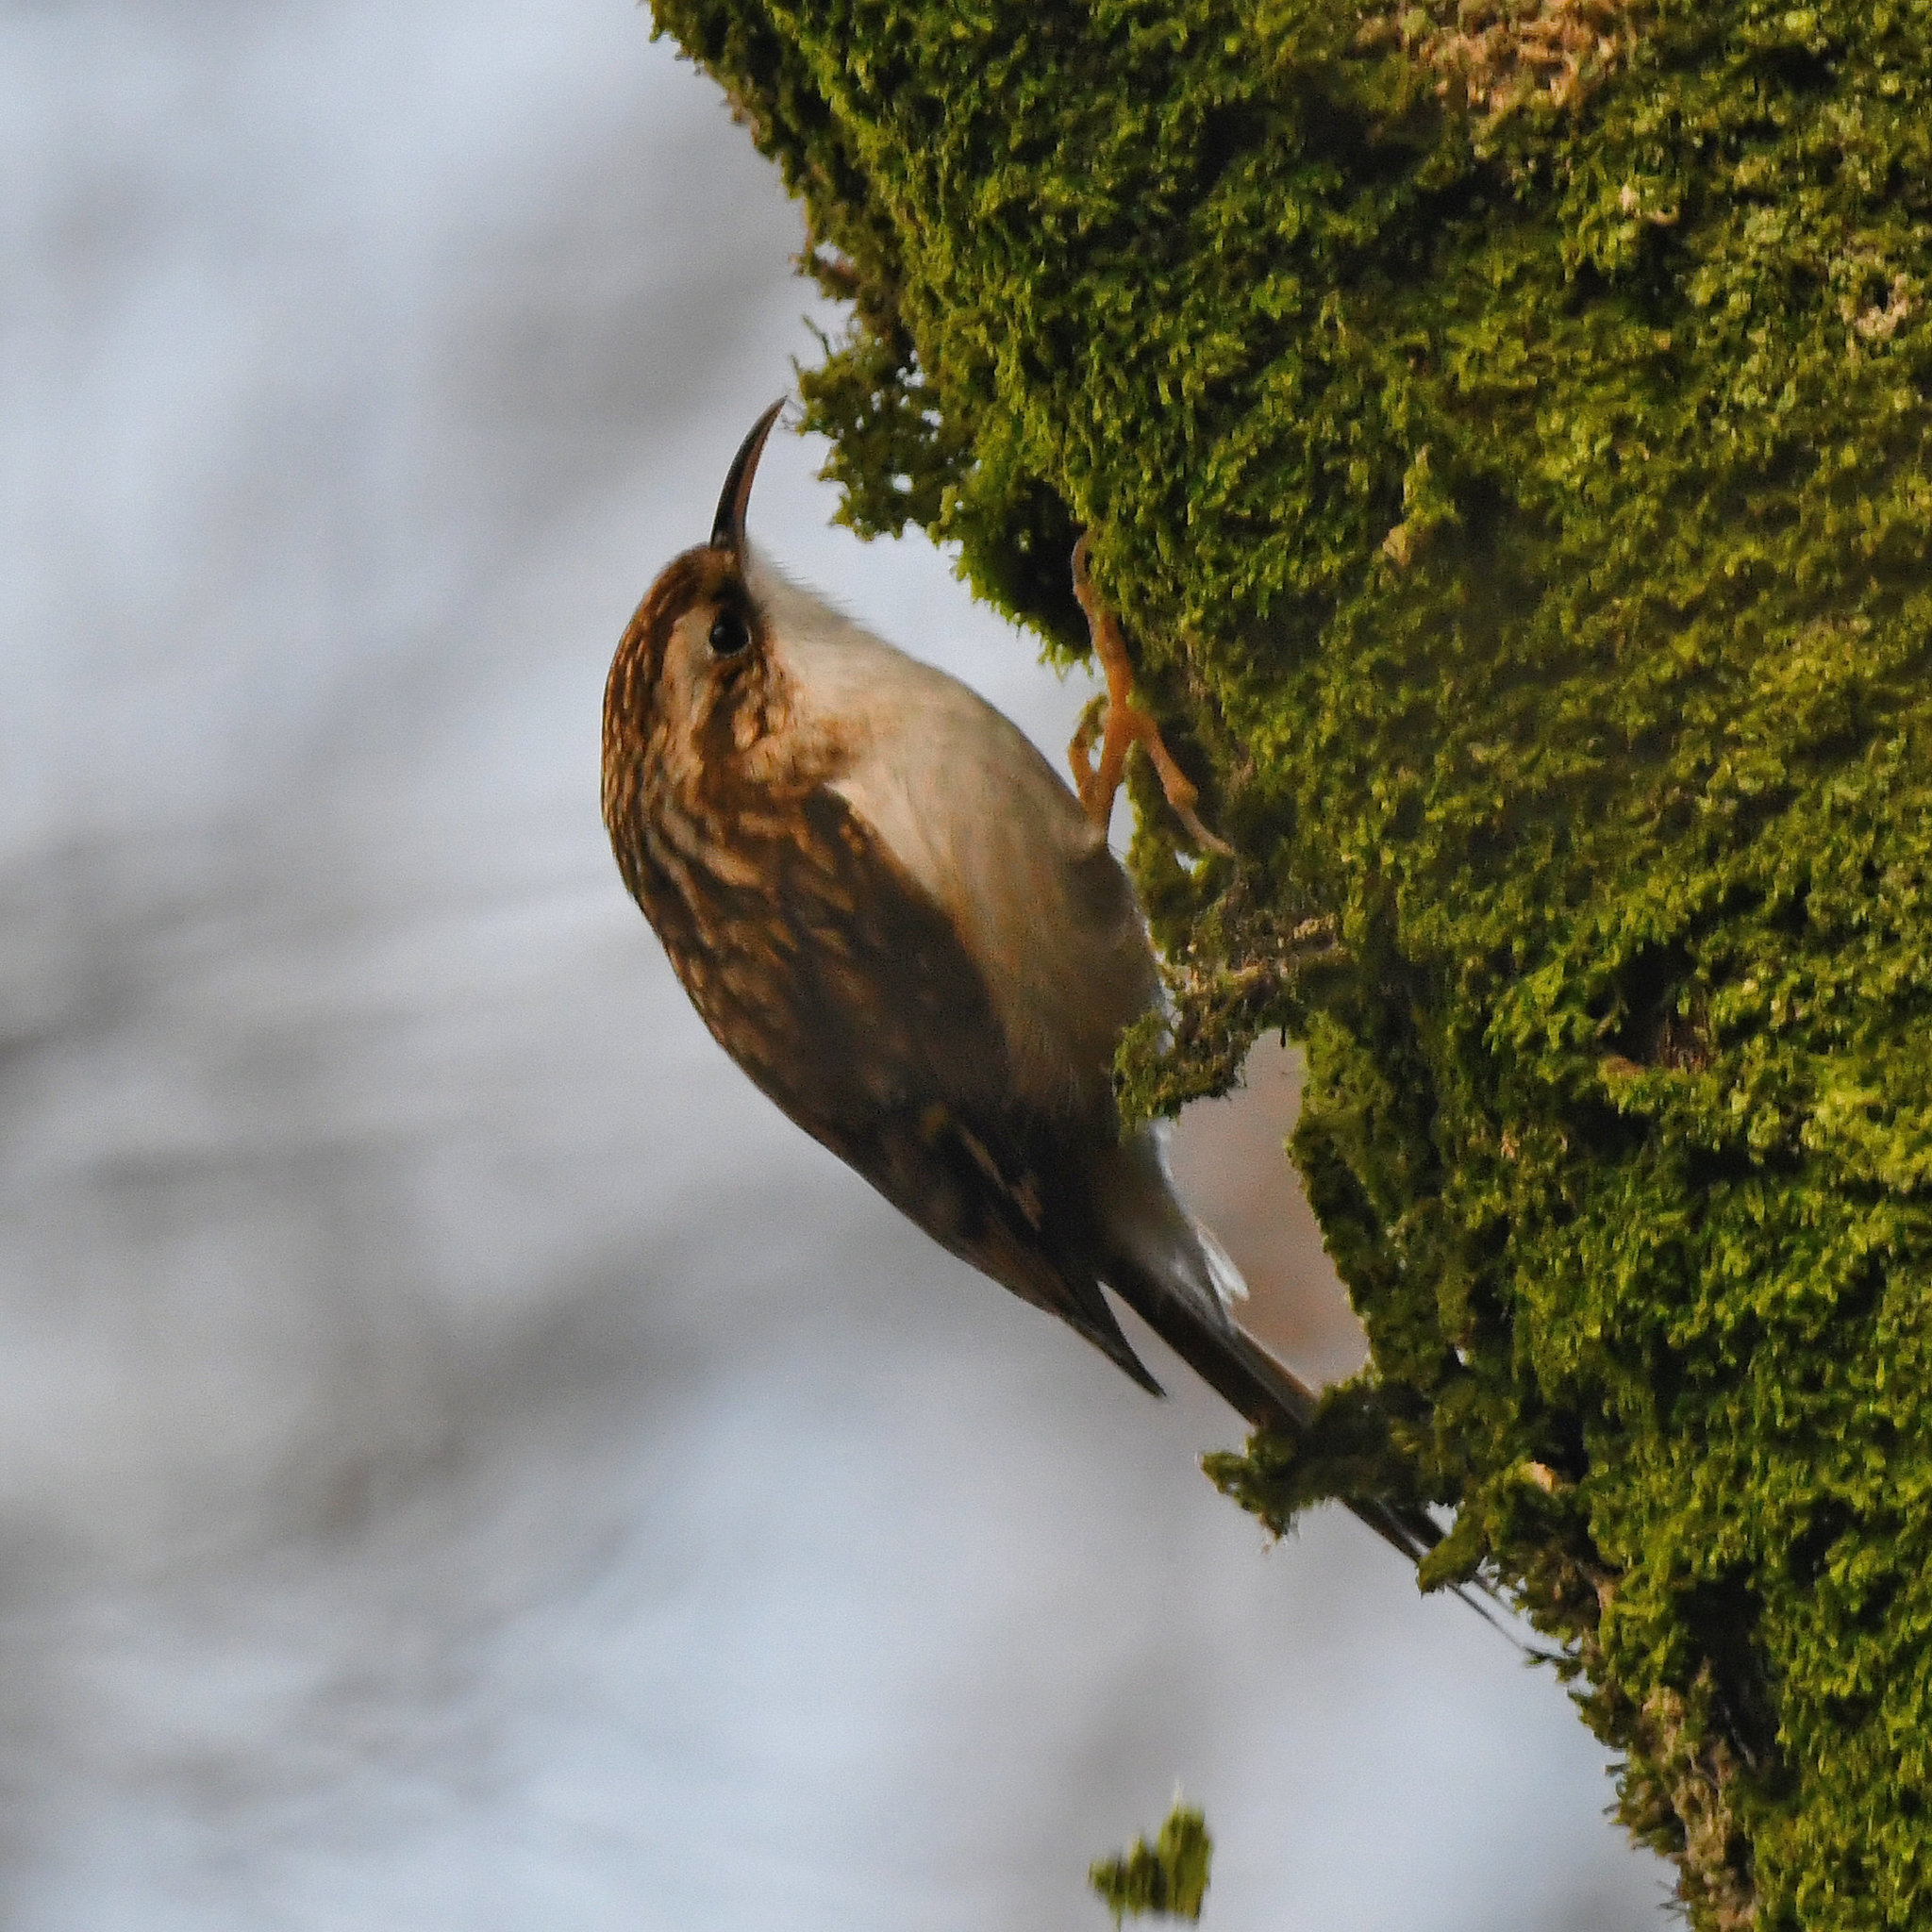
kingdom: Animalia
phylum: Chordata
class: Aves
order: Passeriformes
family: Certhiidae
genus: Certhia
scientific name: Certhia familiaris
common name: Eurasian treecreeper
